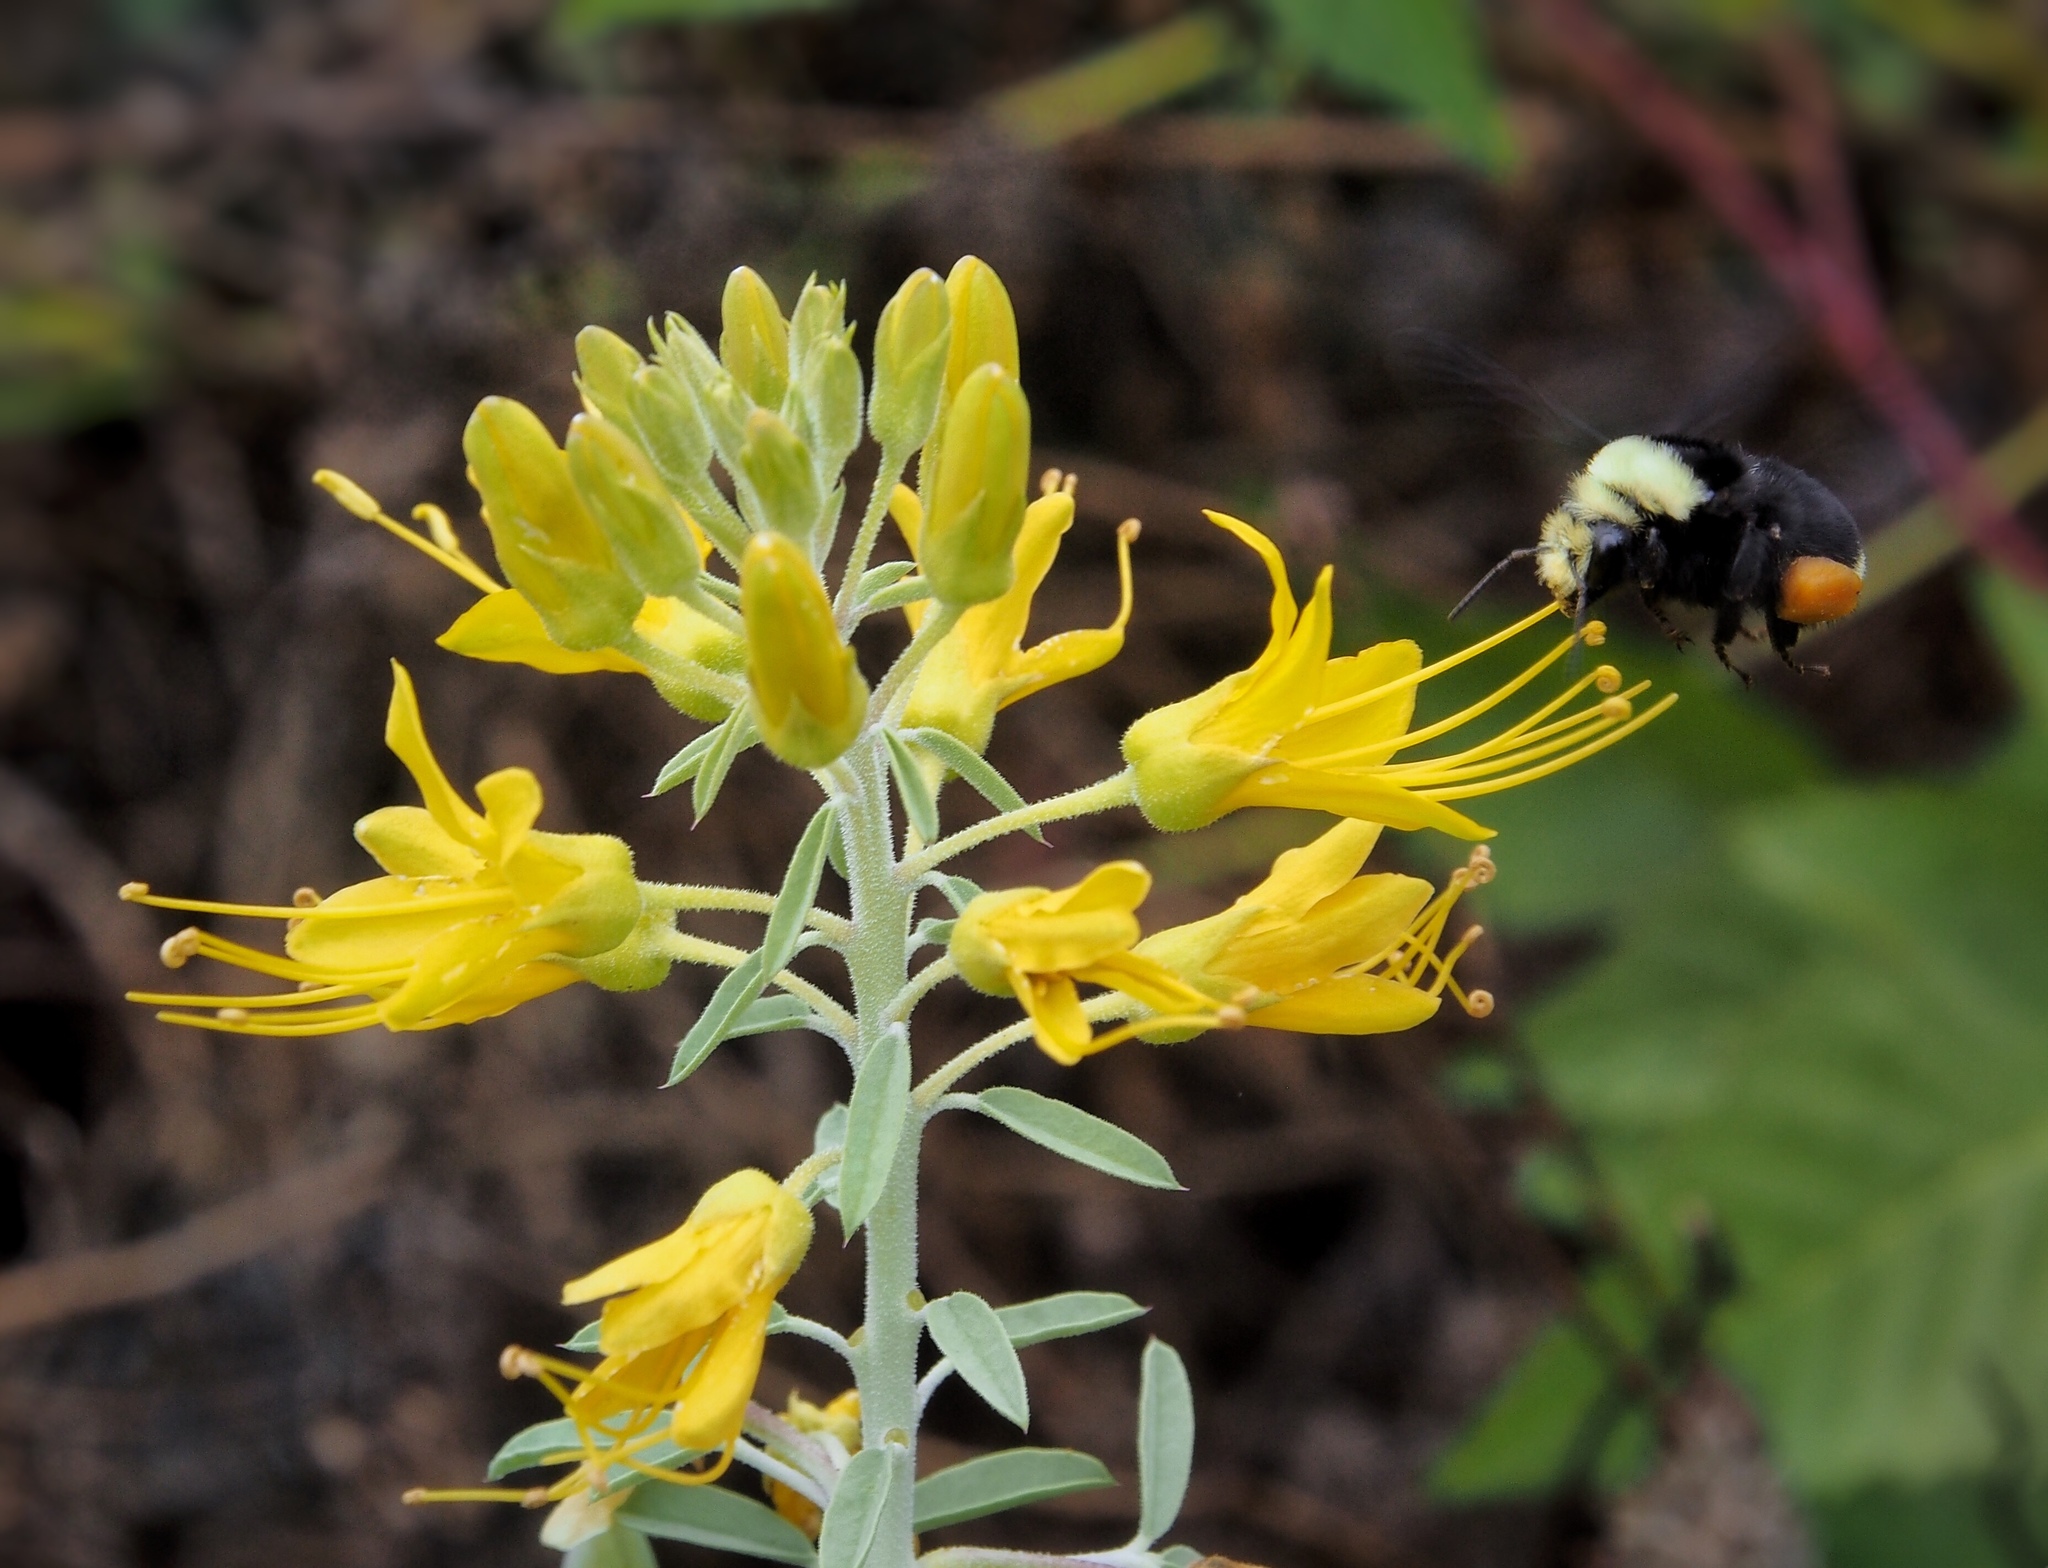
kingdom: Animalia
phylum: Arthropoda
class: Insecta
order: Hymenoptera
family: Apidae
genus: Bombus
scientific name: Bombus vosnesenskii
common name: Vosnesensky bumble bee
